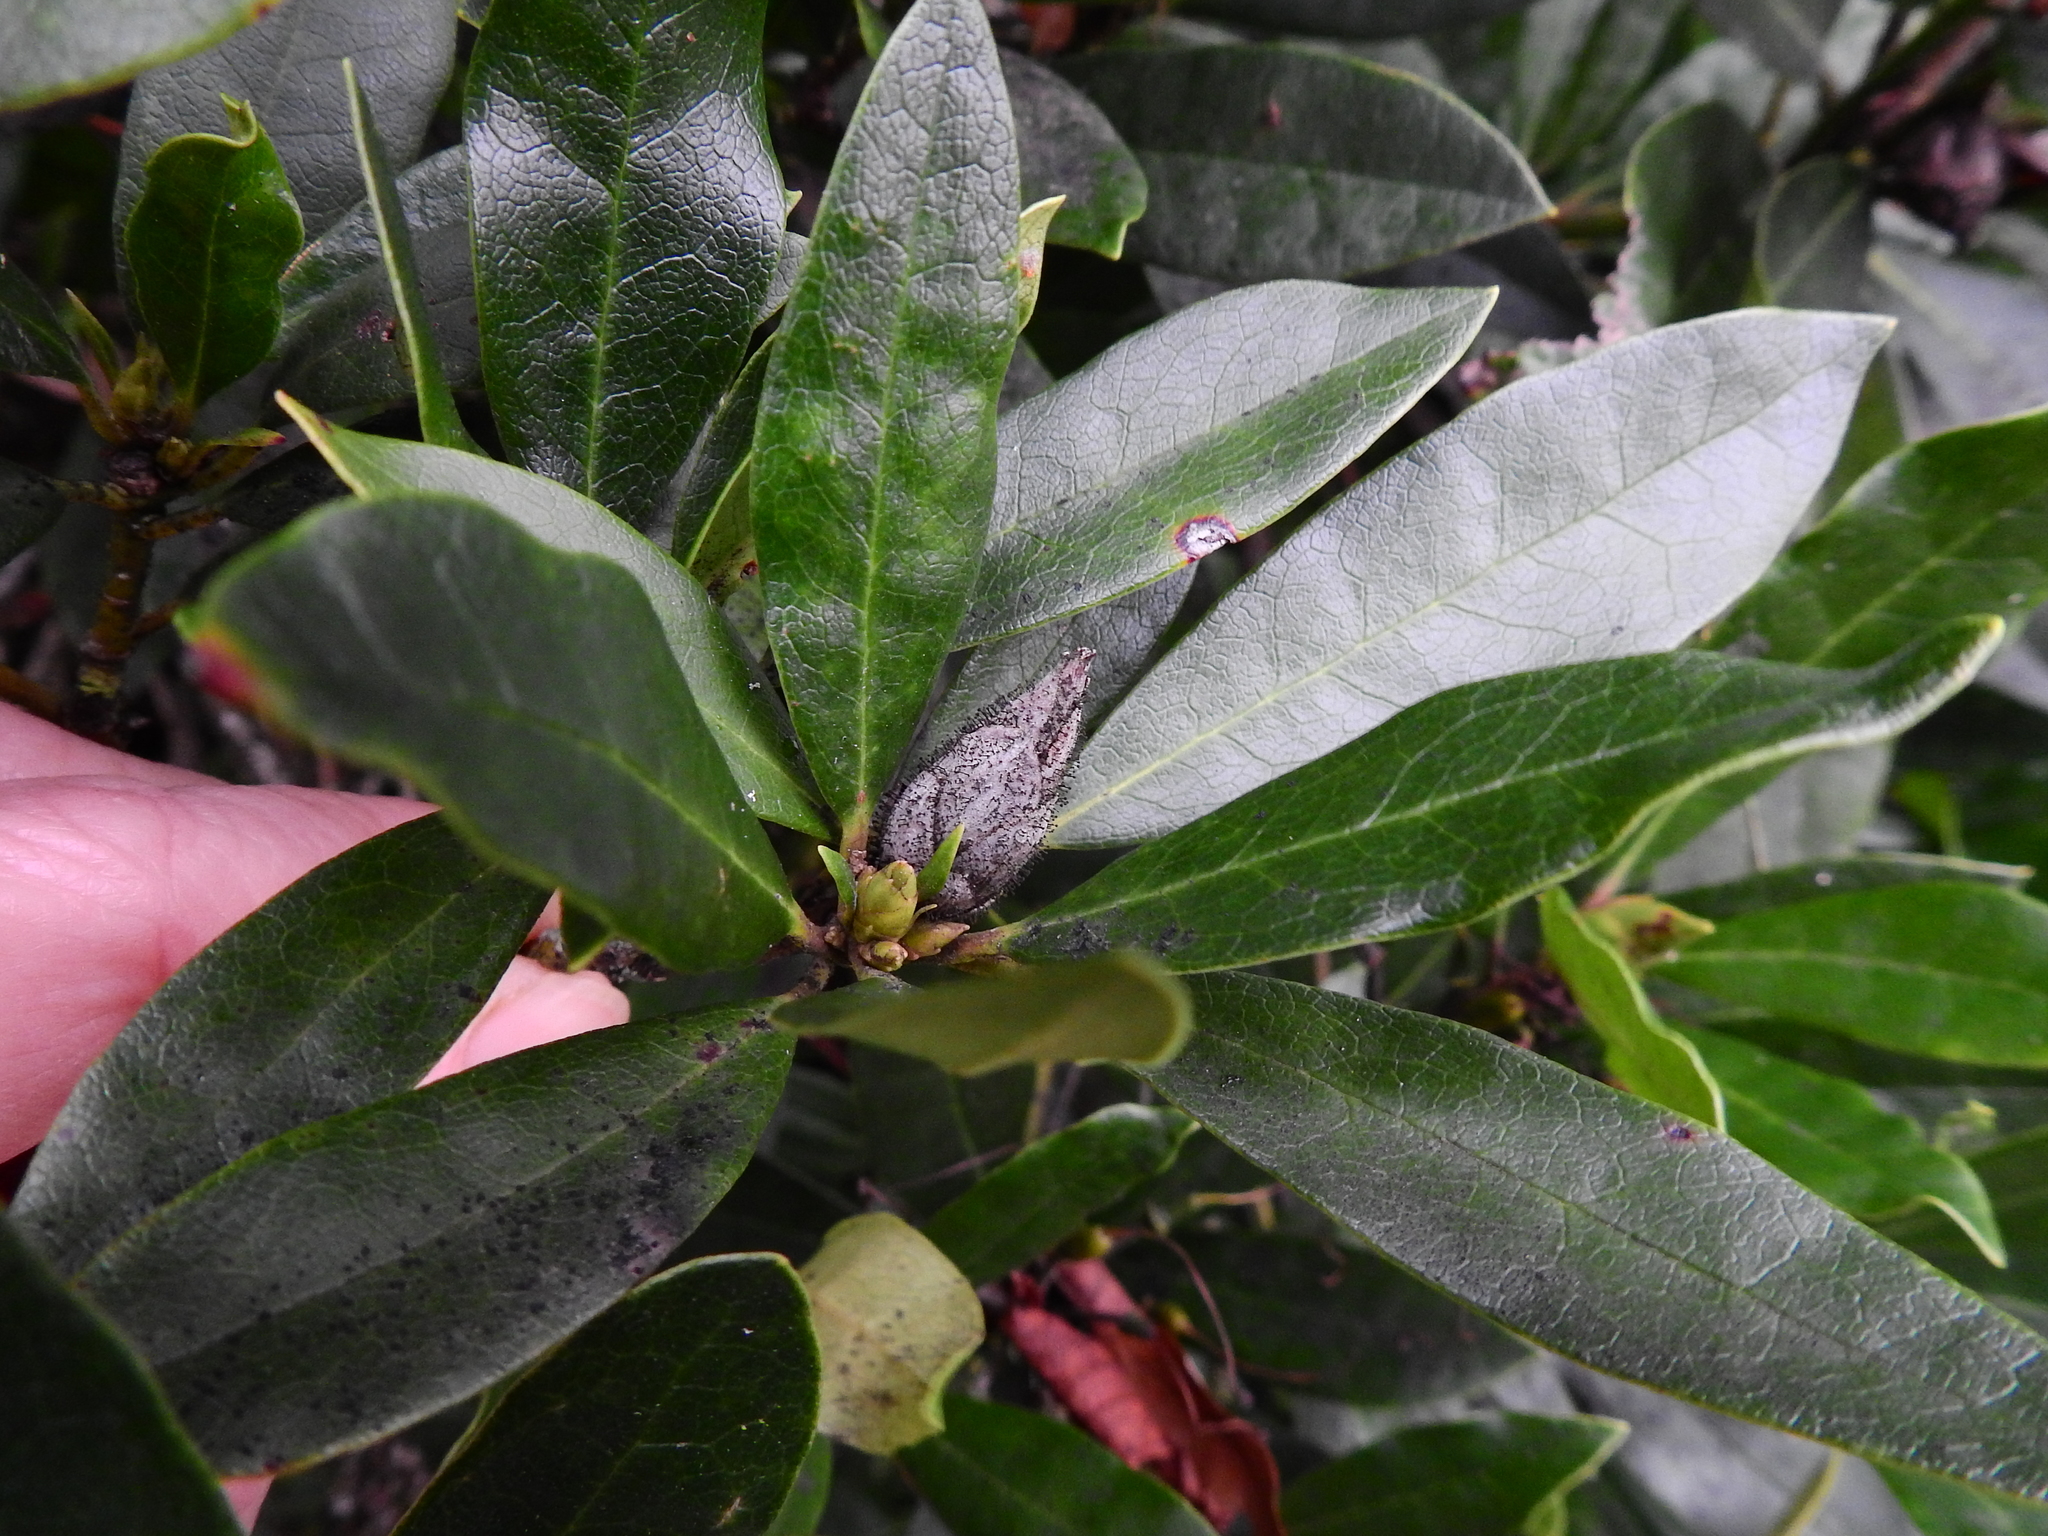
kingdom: Fungi
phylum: Ascomycota
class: Dothideomycetes
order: Pleosporales
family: Melanommataceae
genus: Seifertia
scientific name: Seifertia azaleae
